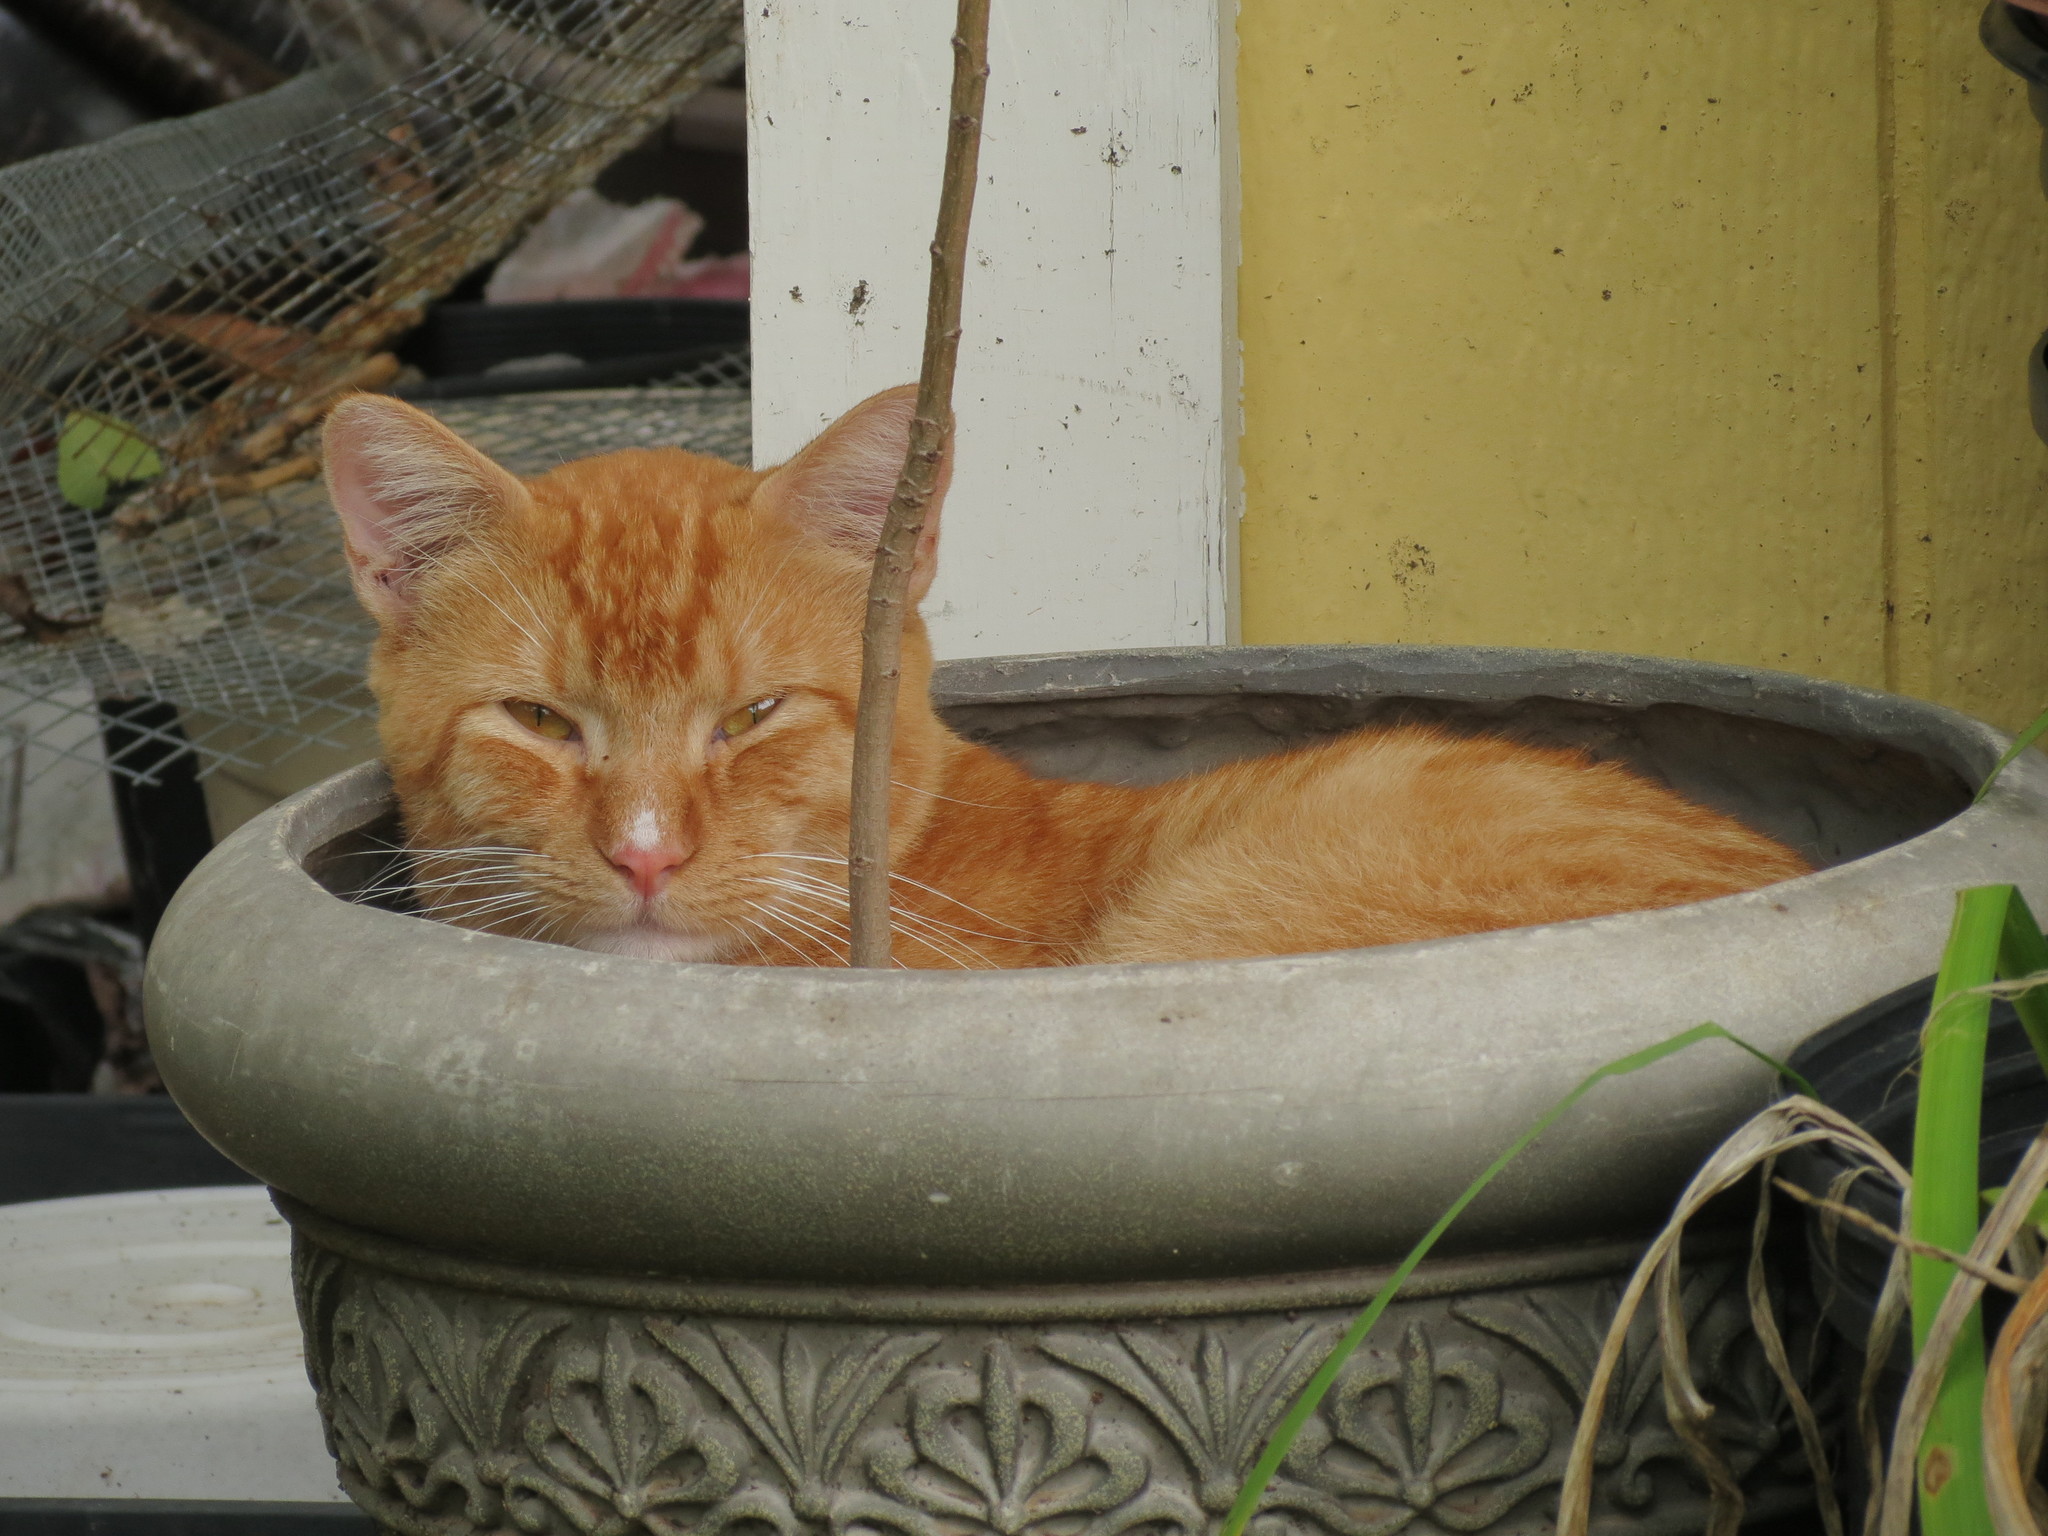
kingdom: Animalia
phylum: Chordata
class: Mammalia
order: Carnivora
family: Felidae
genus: Felis
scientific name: Felis catus
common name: Domestic cat
